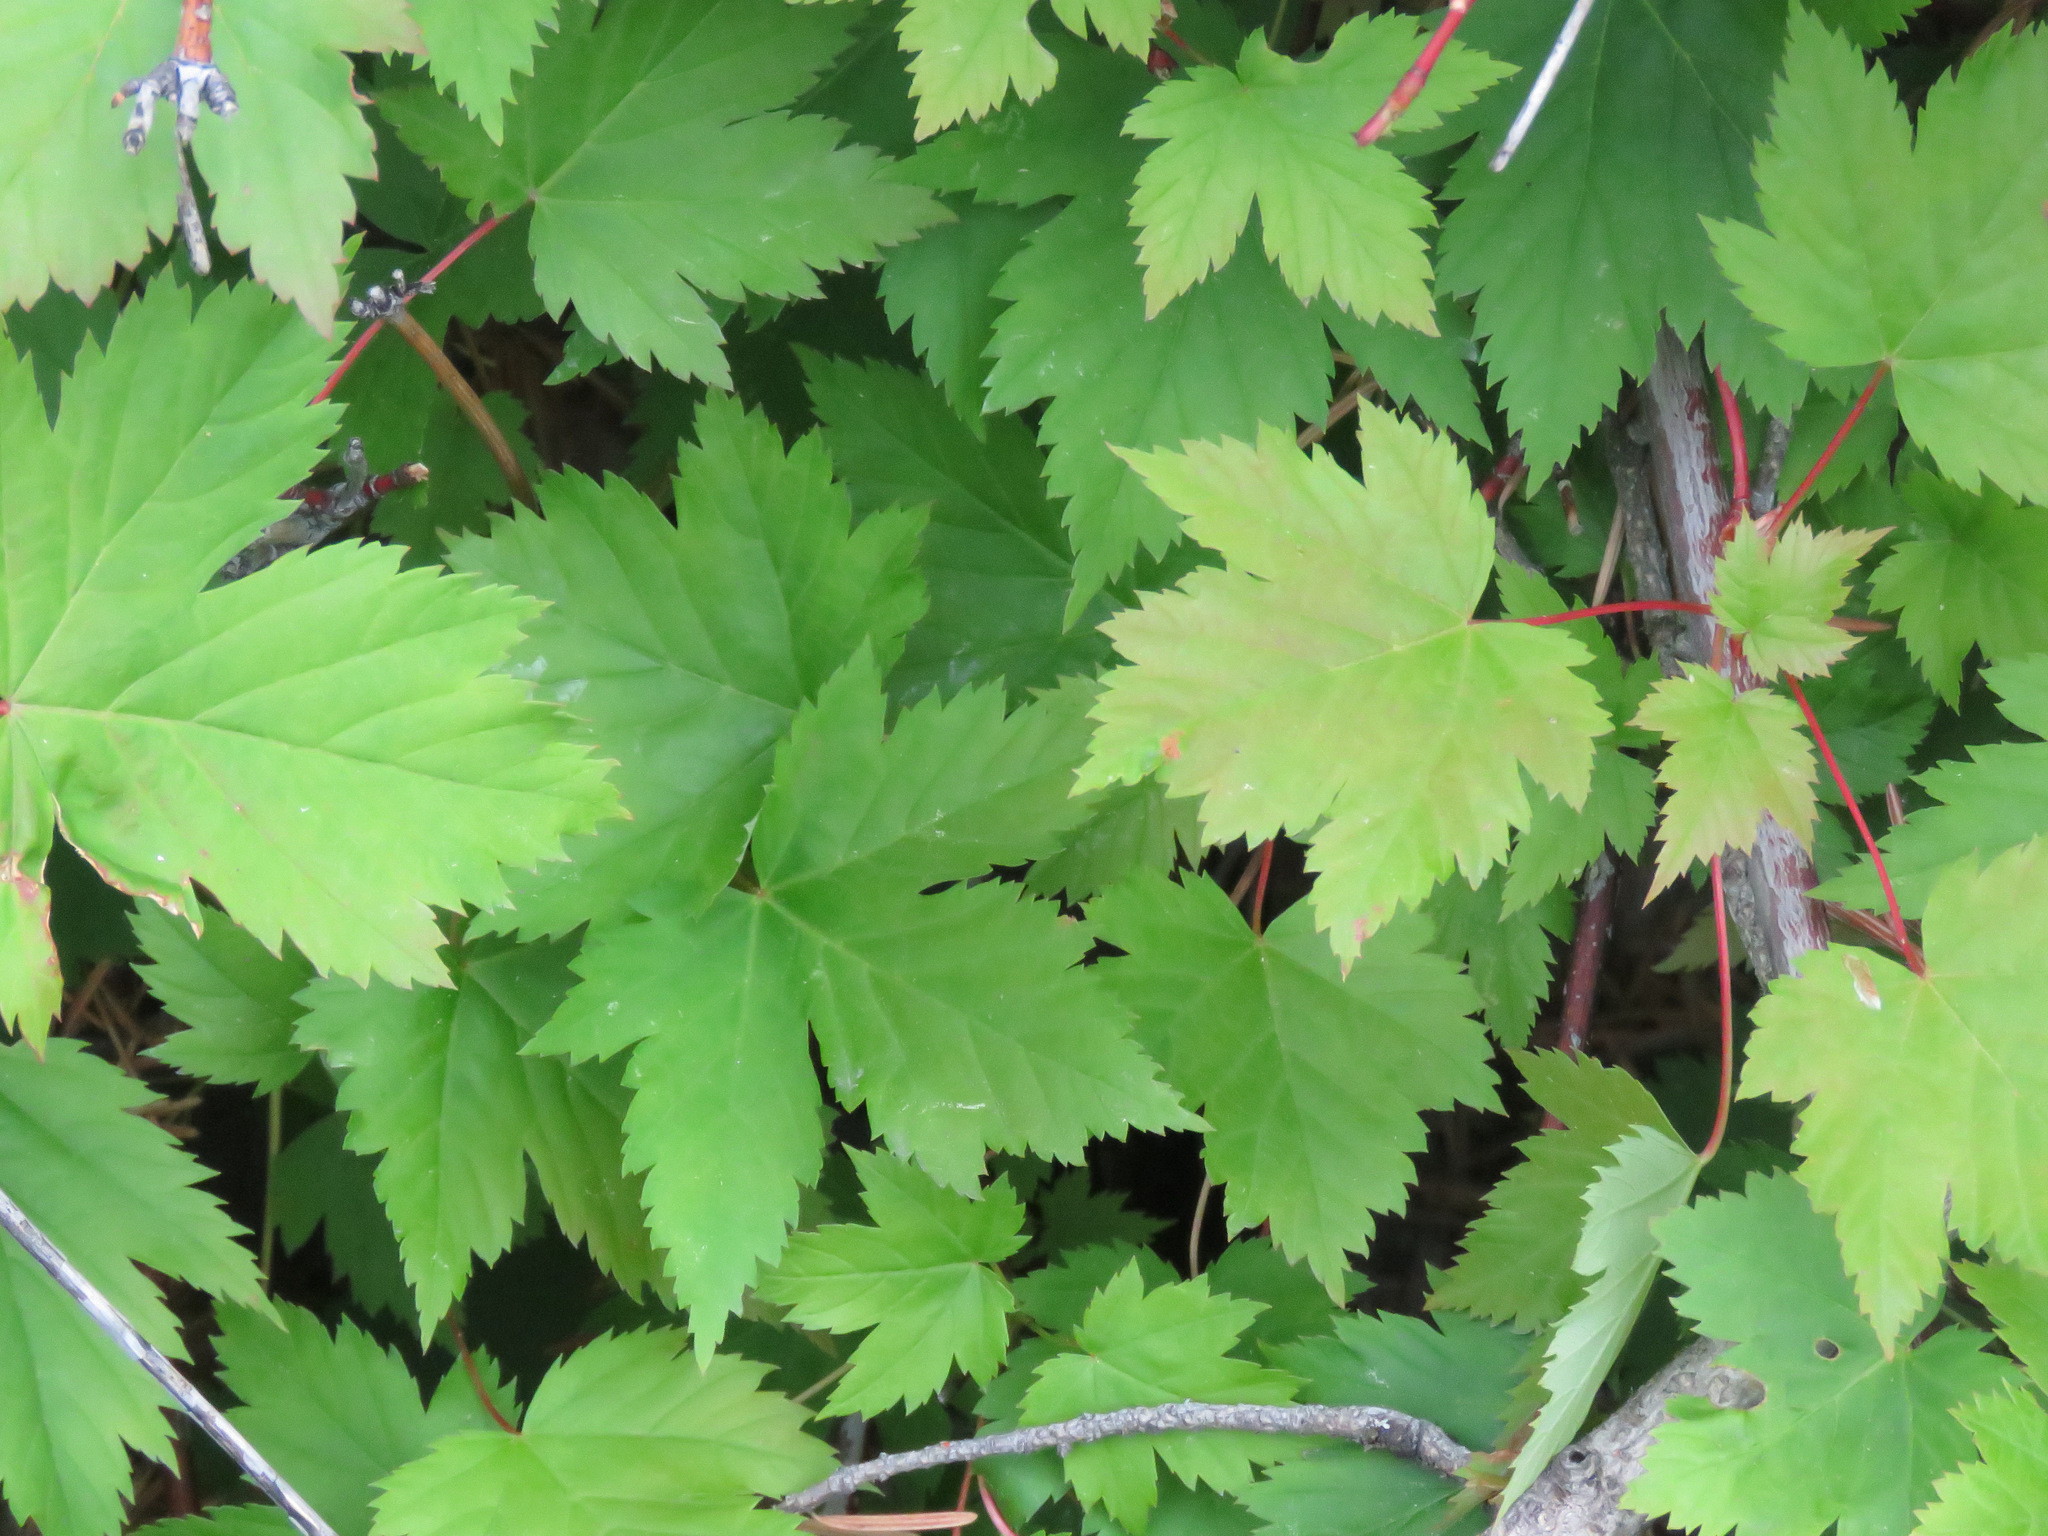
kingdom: Plantae
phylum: Tracheophyta
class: Magnoliopsida
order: Sapindales
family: Sapindaceae
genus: Acer
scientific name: Acer glabrum
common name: Rocky mountain maple
